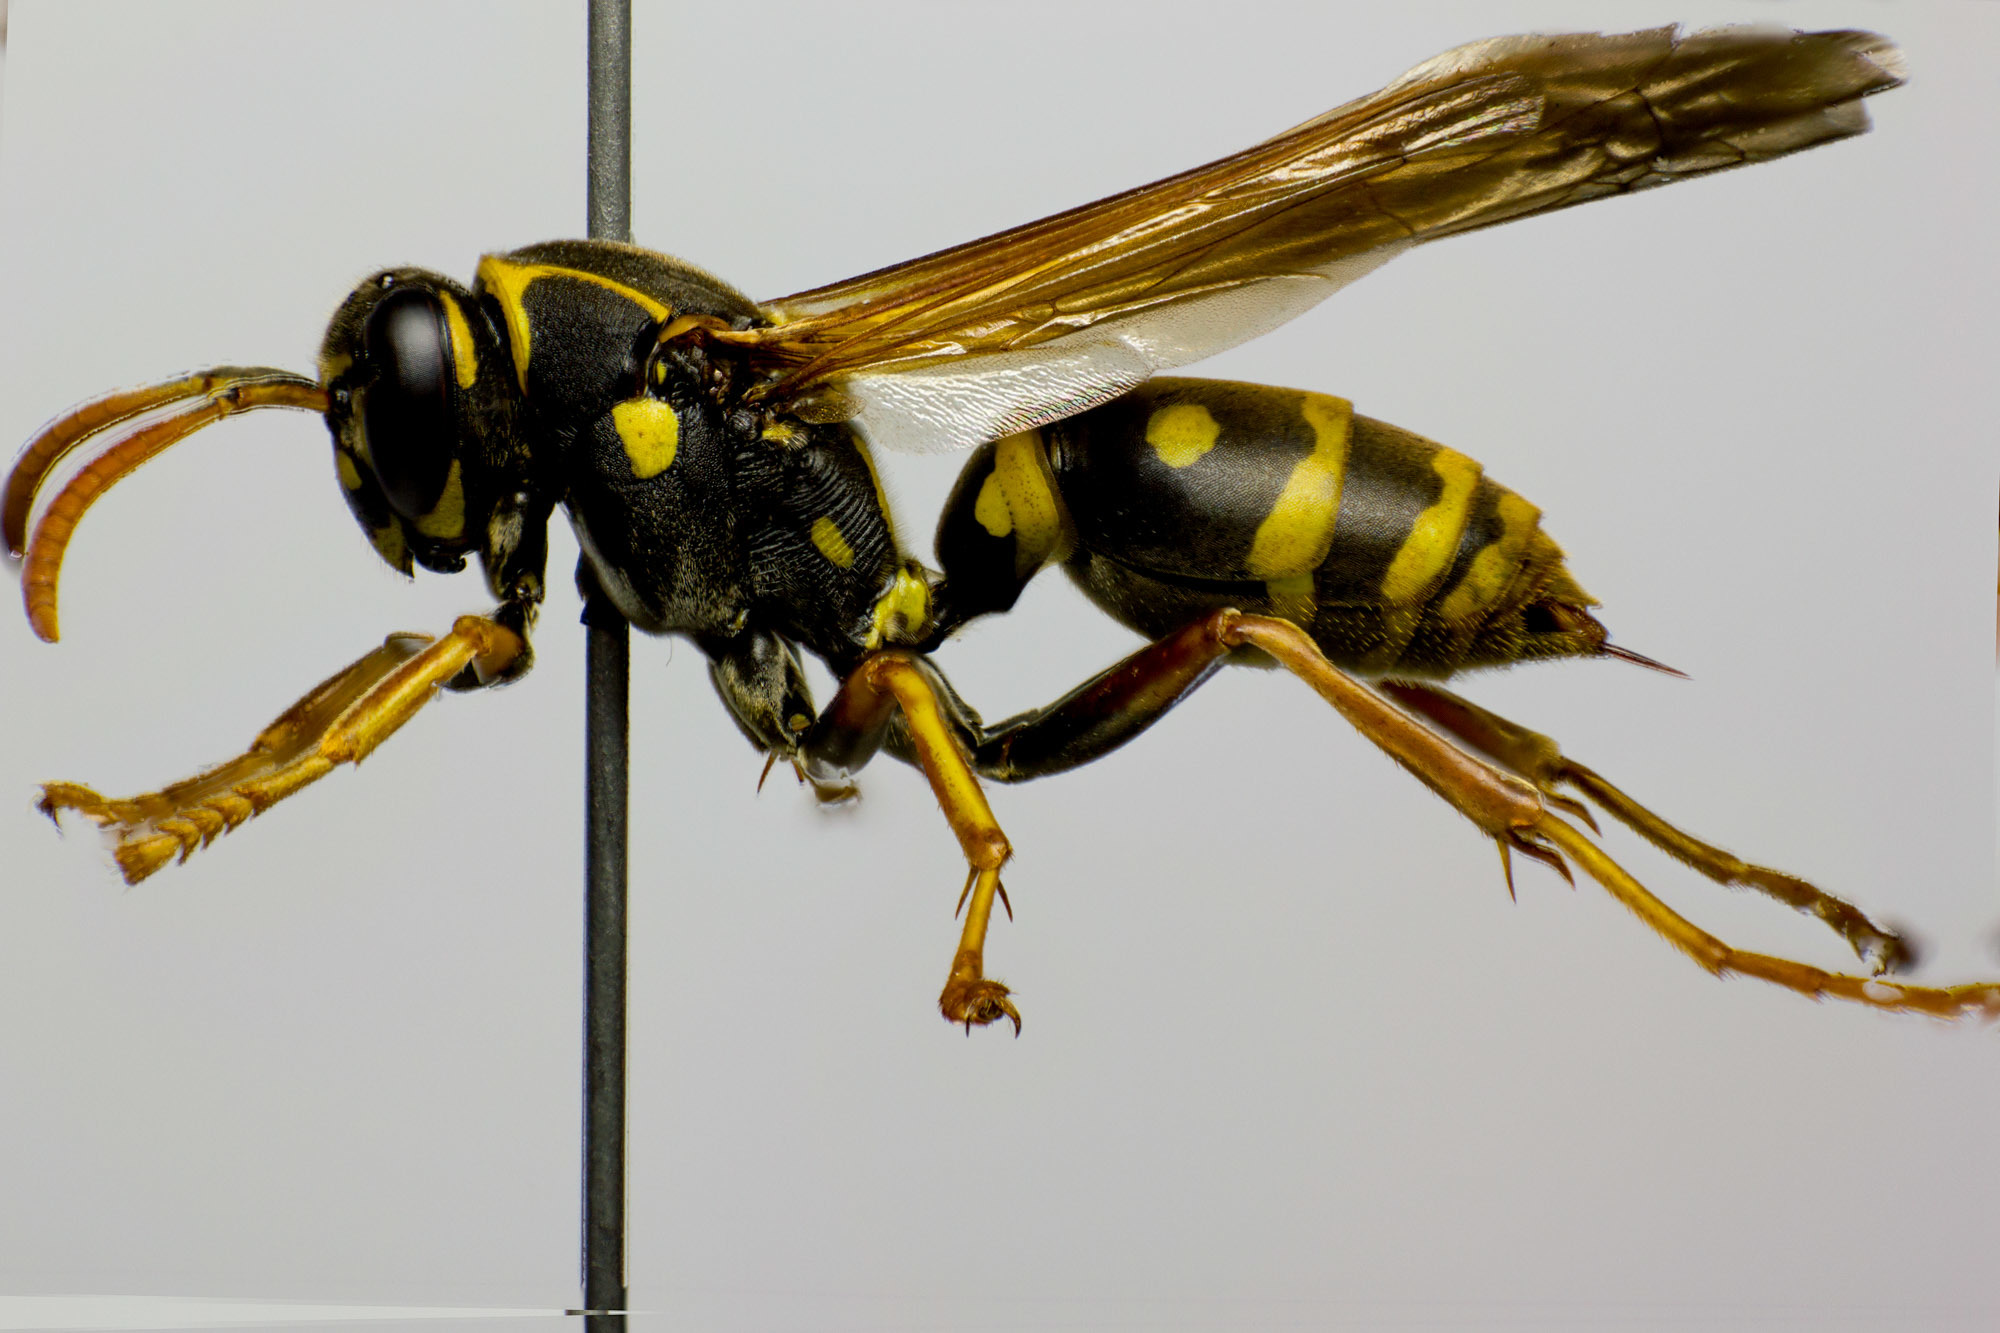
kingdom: Animalia
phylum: Arthropoda
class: Insecta
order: Hymenoptera
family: Eumenidae
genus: Polistes
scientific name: Polistes chinensis
